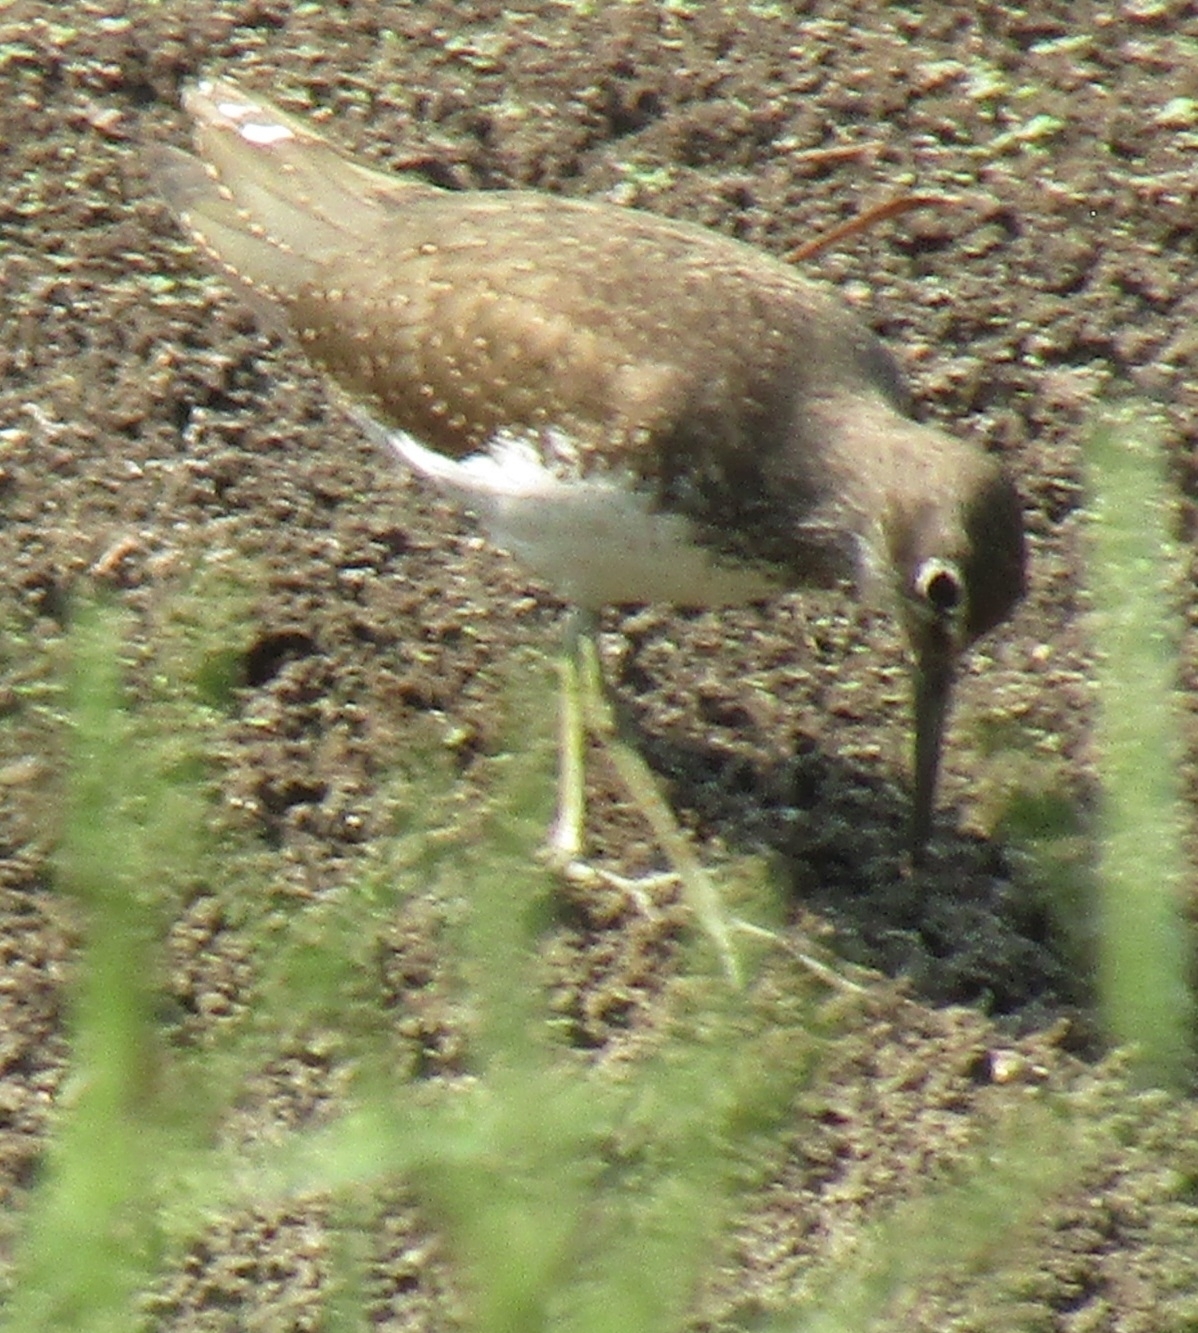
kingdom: Animalia
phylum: Chordata
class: Aves
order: Charadriiformes
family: Scolopacidae
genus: Tringa
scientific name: Tringa ochropus
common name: Green sandpiper
